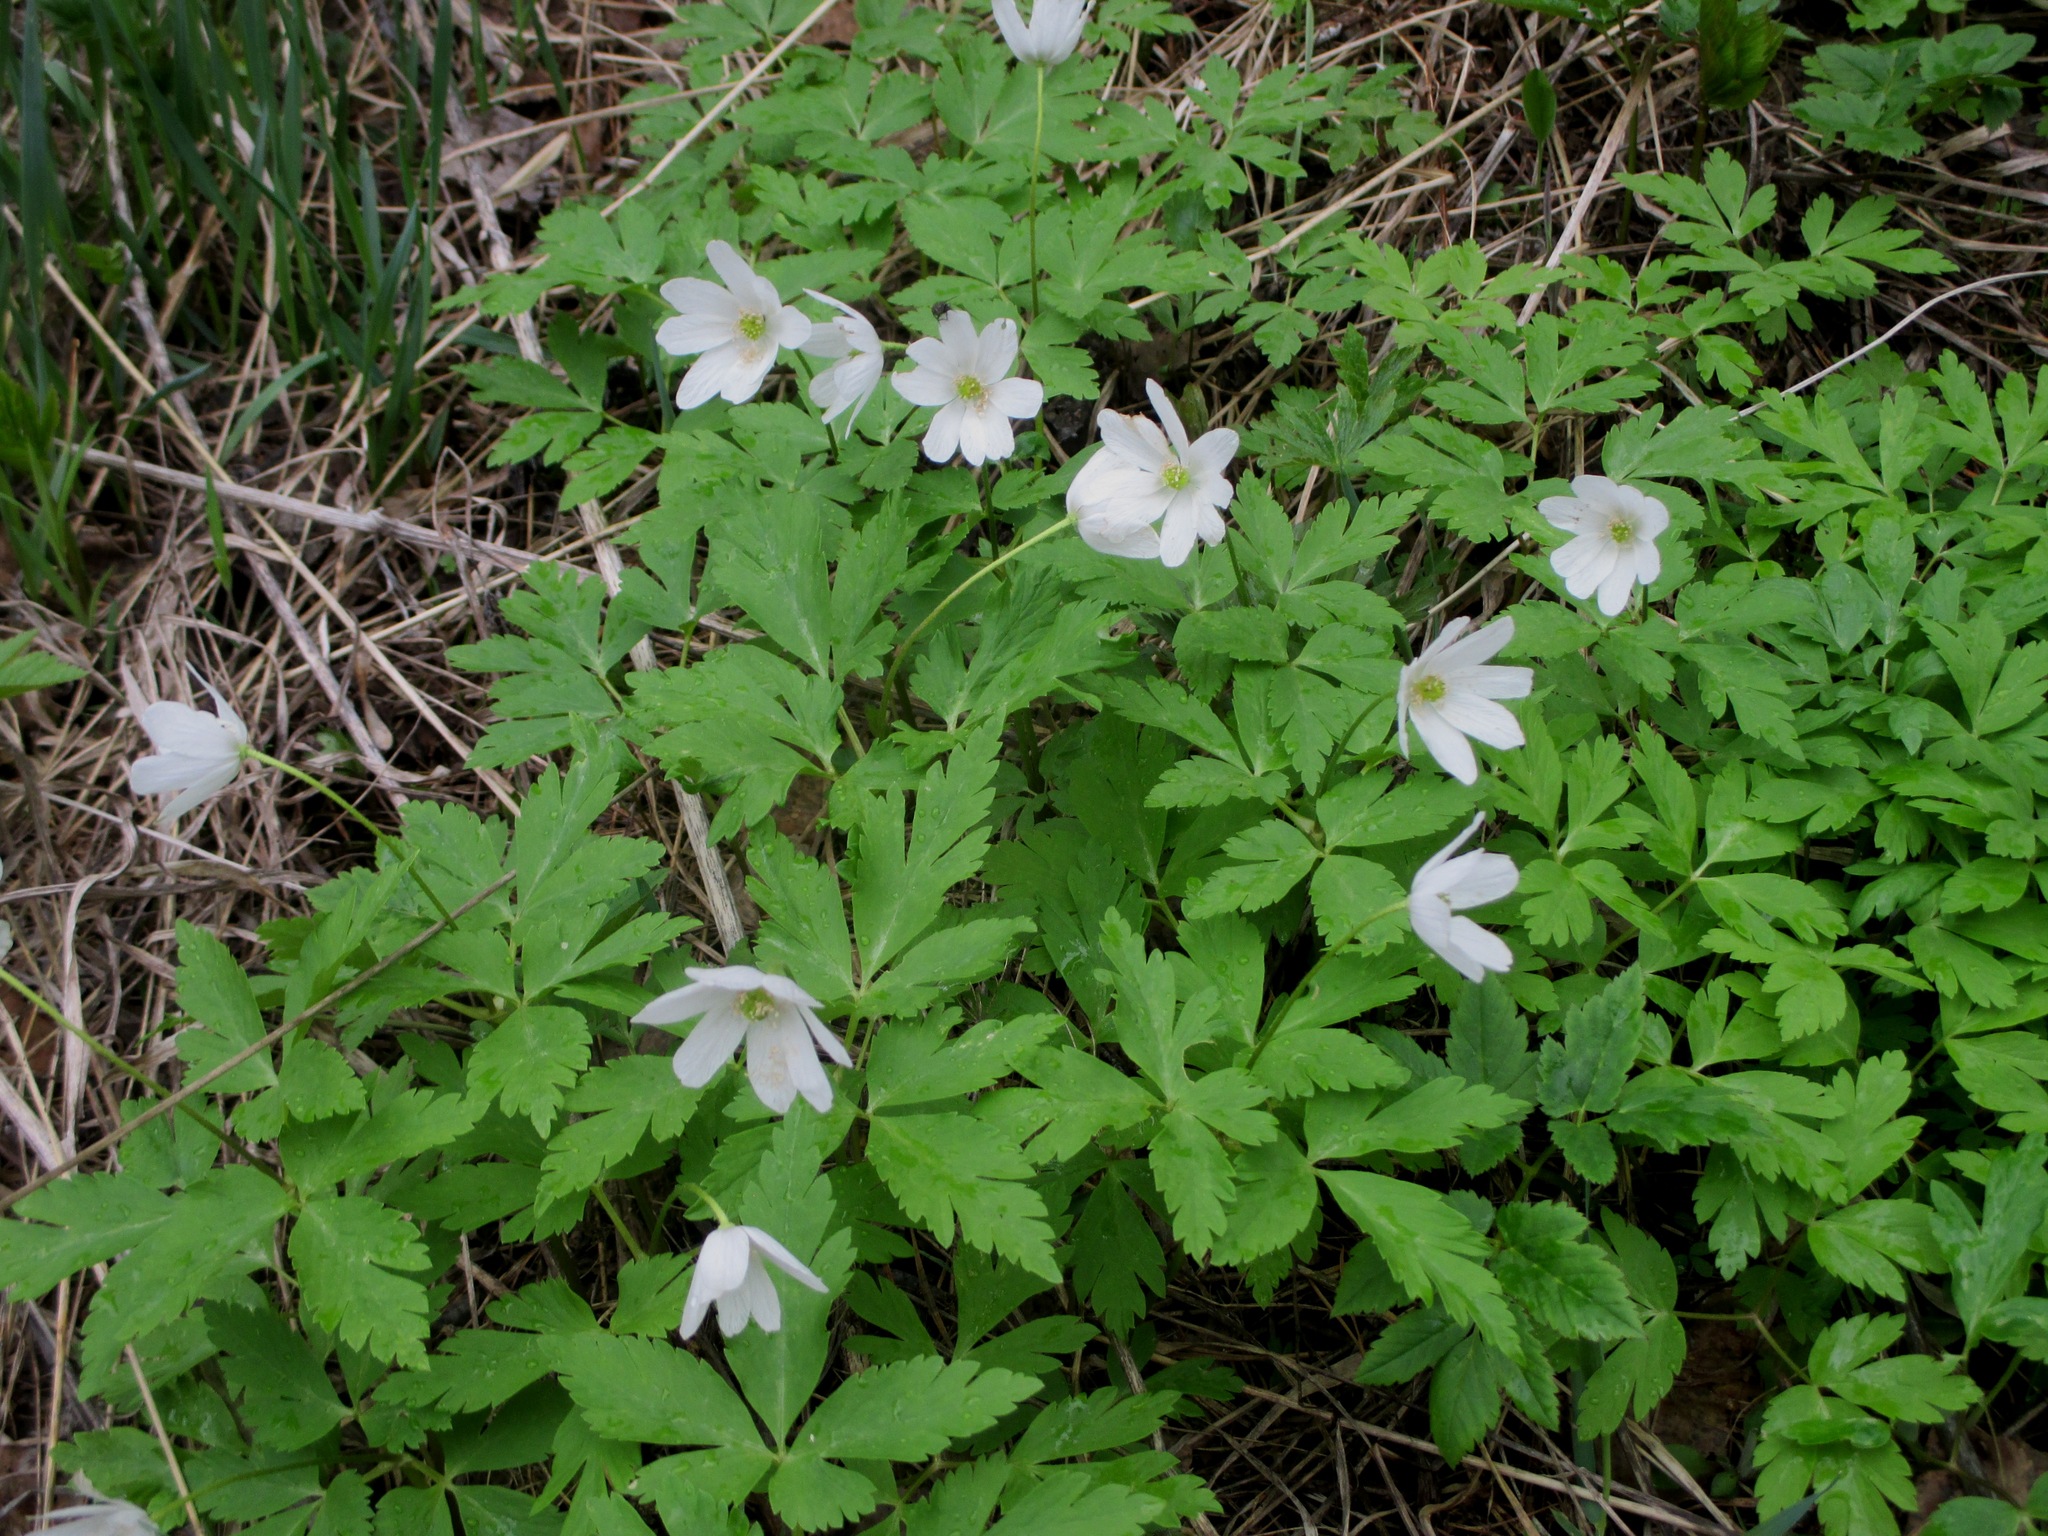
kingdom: Plantae
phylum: Tracheophyta
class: Magnoliopsida
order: Ranunculales
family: Ranunculaceae
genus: Anemone
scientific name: Anemone altaica
